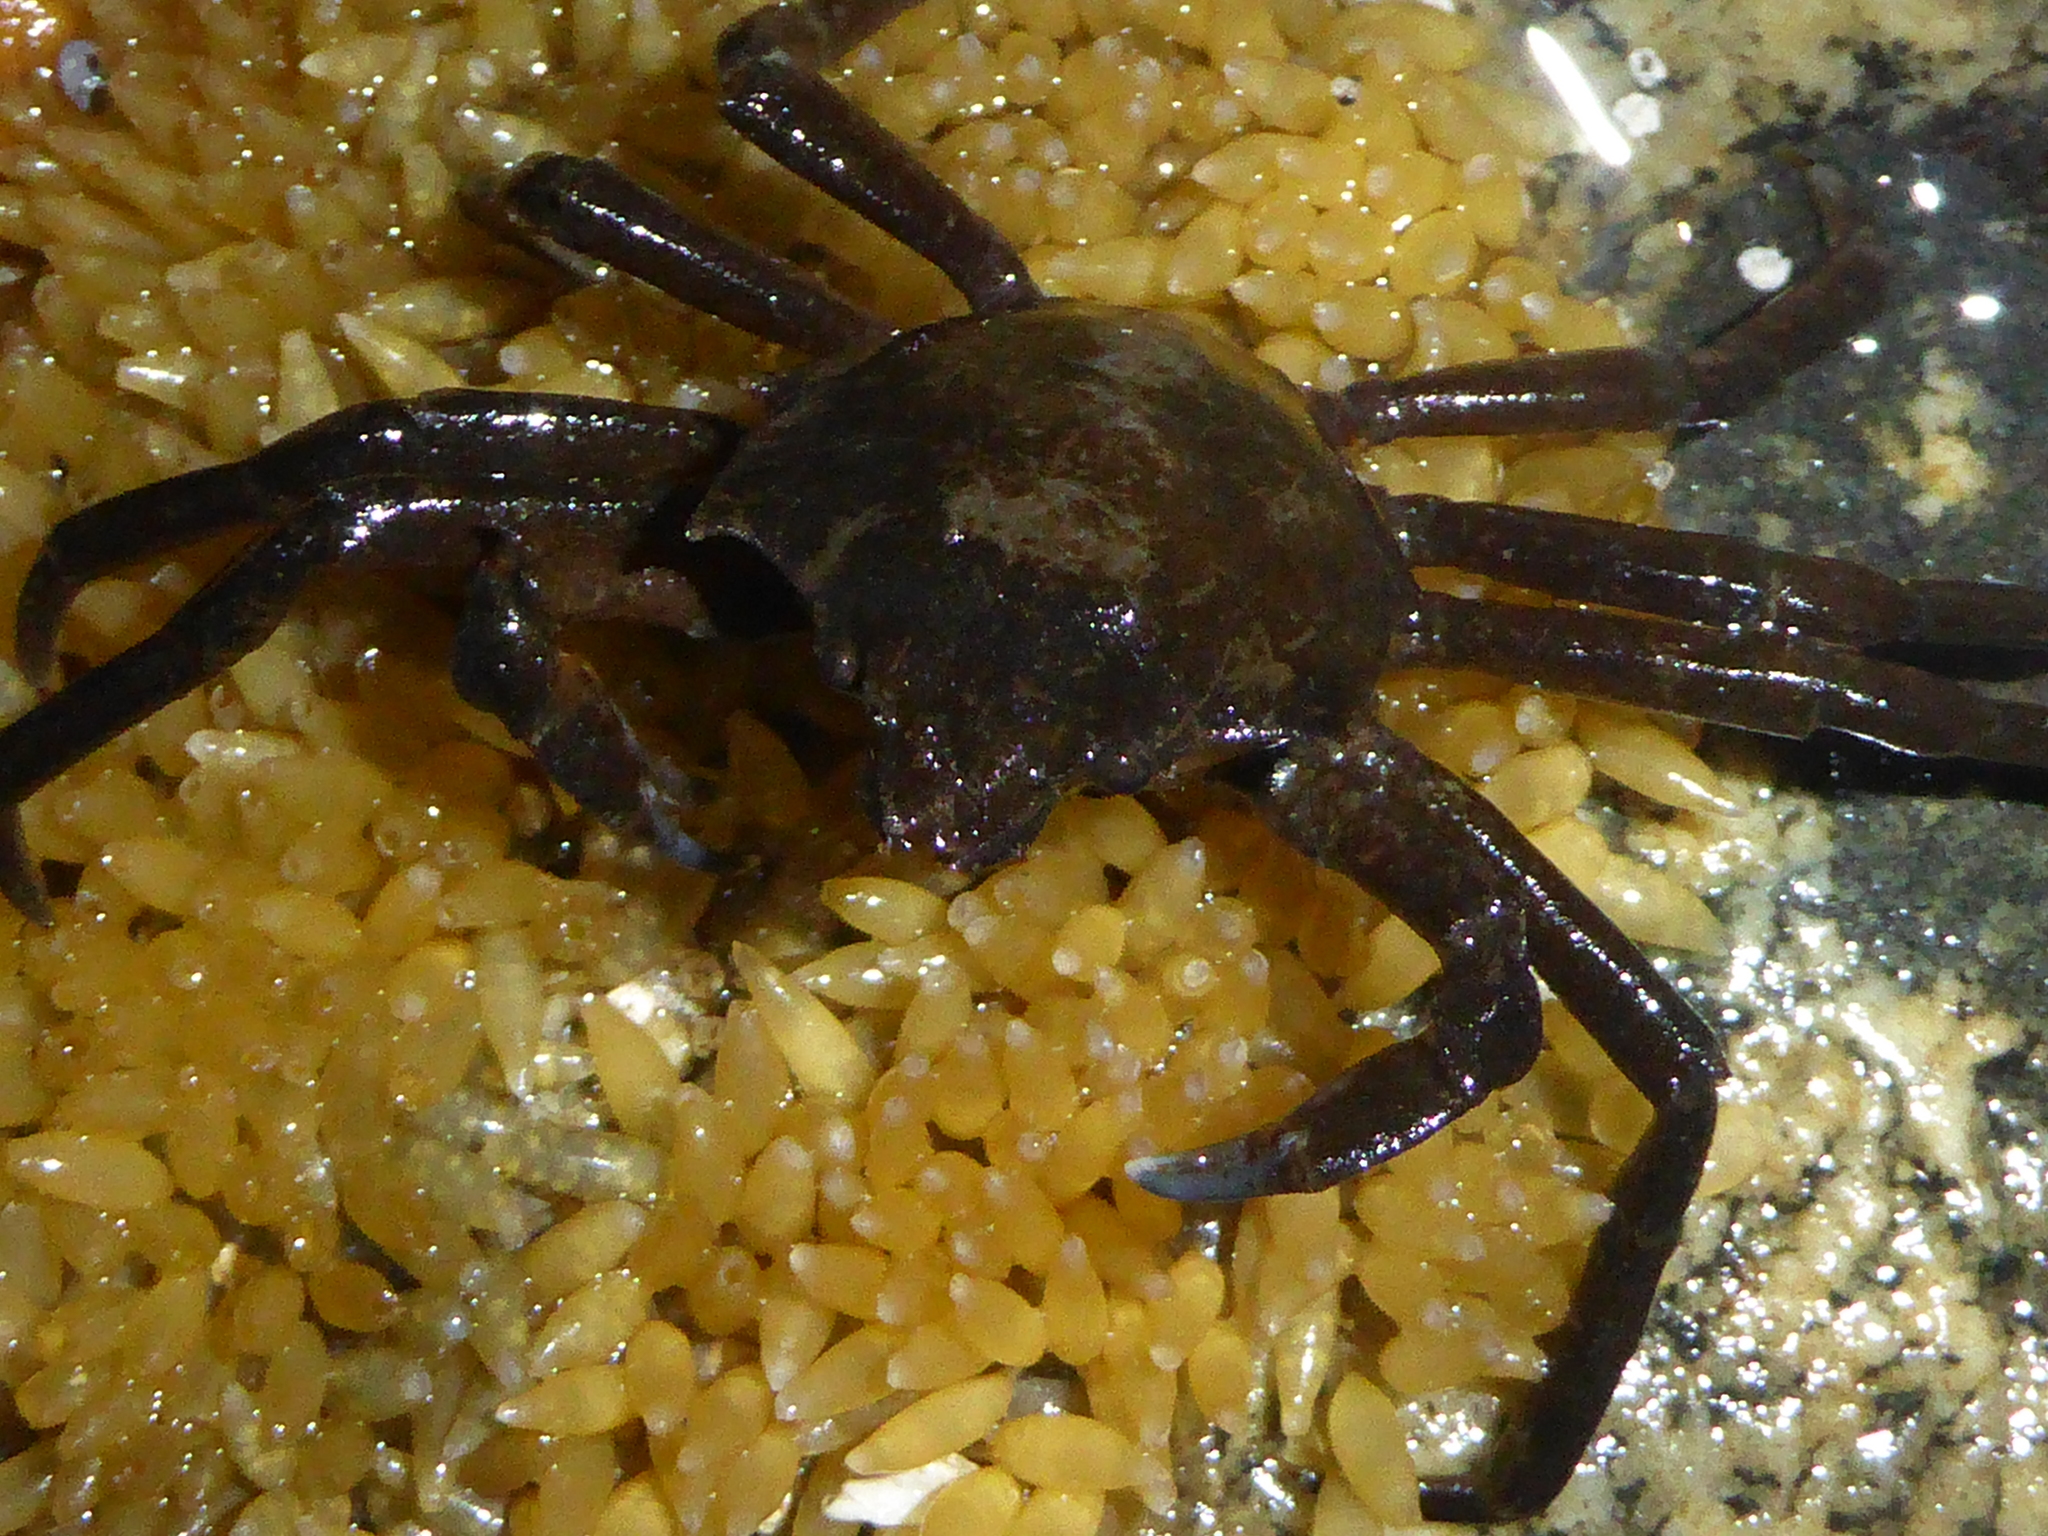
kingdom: Animalia
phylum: Arthropoda
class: Malacostraca
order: Decapoda
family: Epialtidae
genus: Pugettia
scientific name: Pugettia producta
